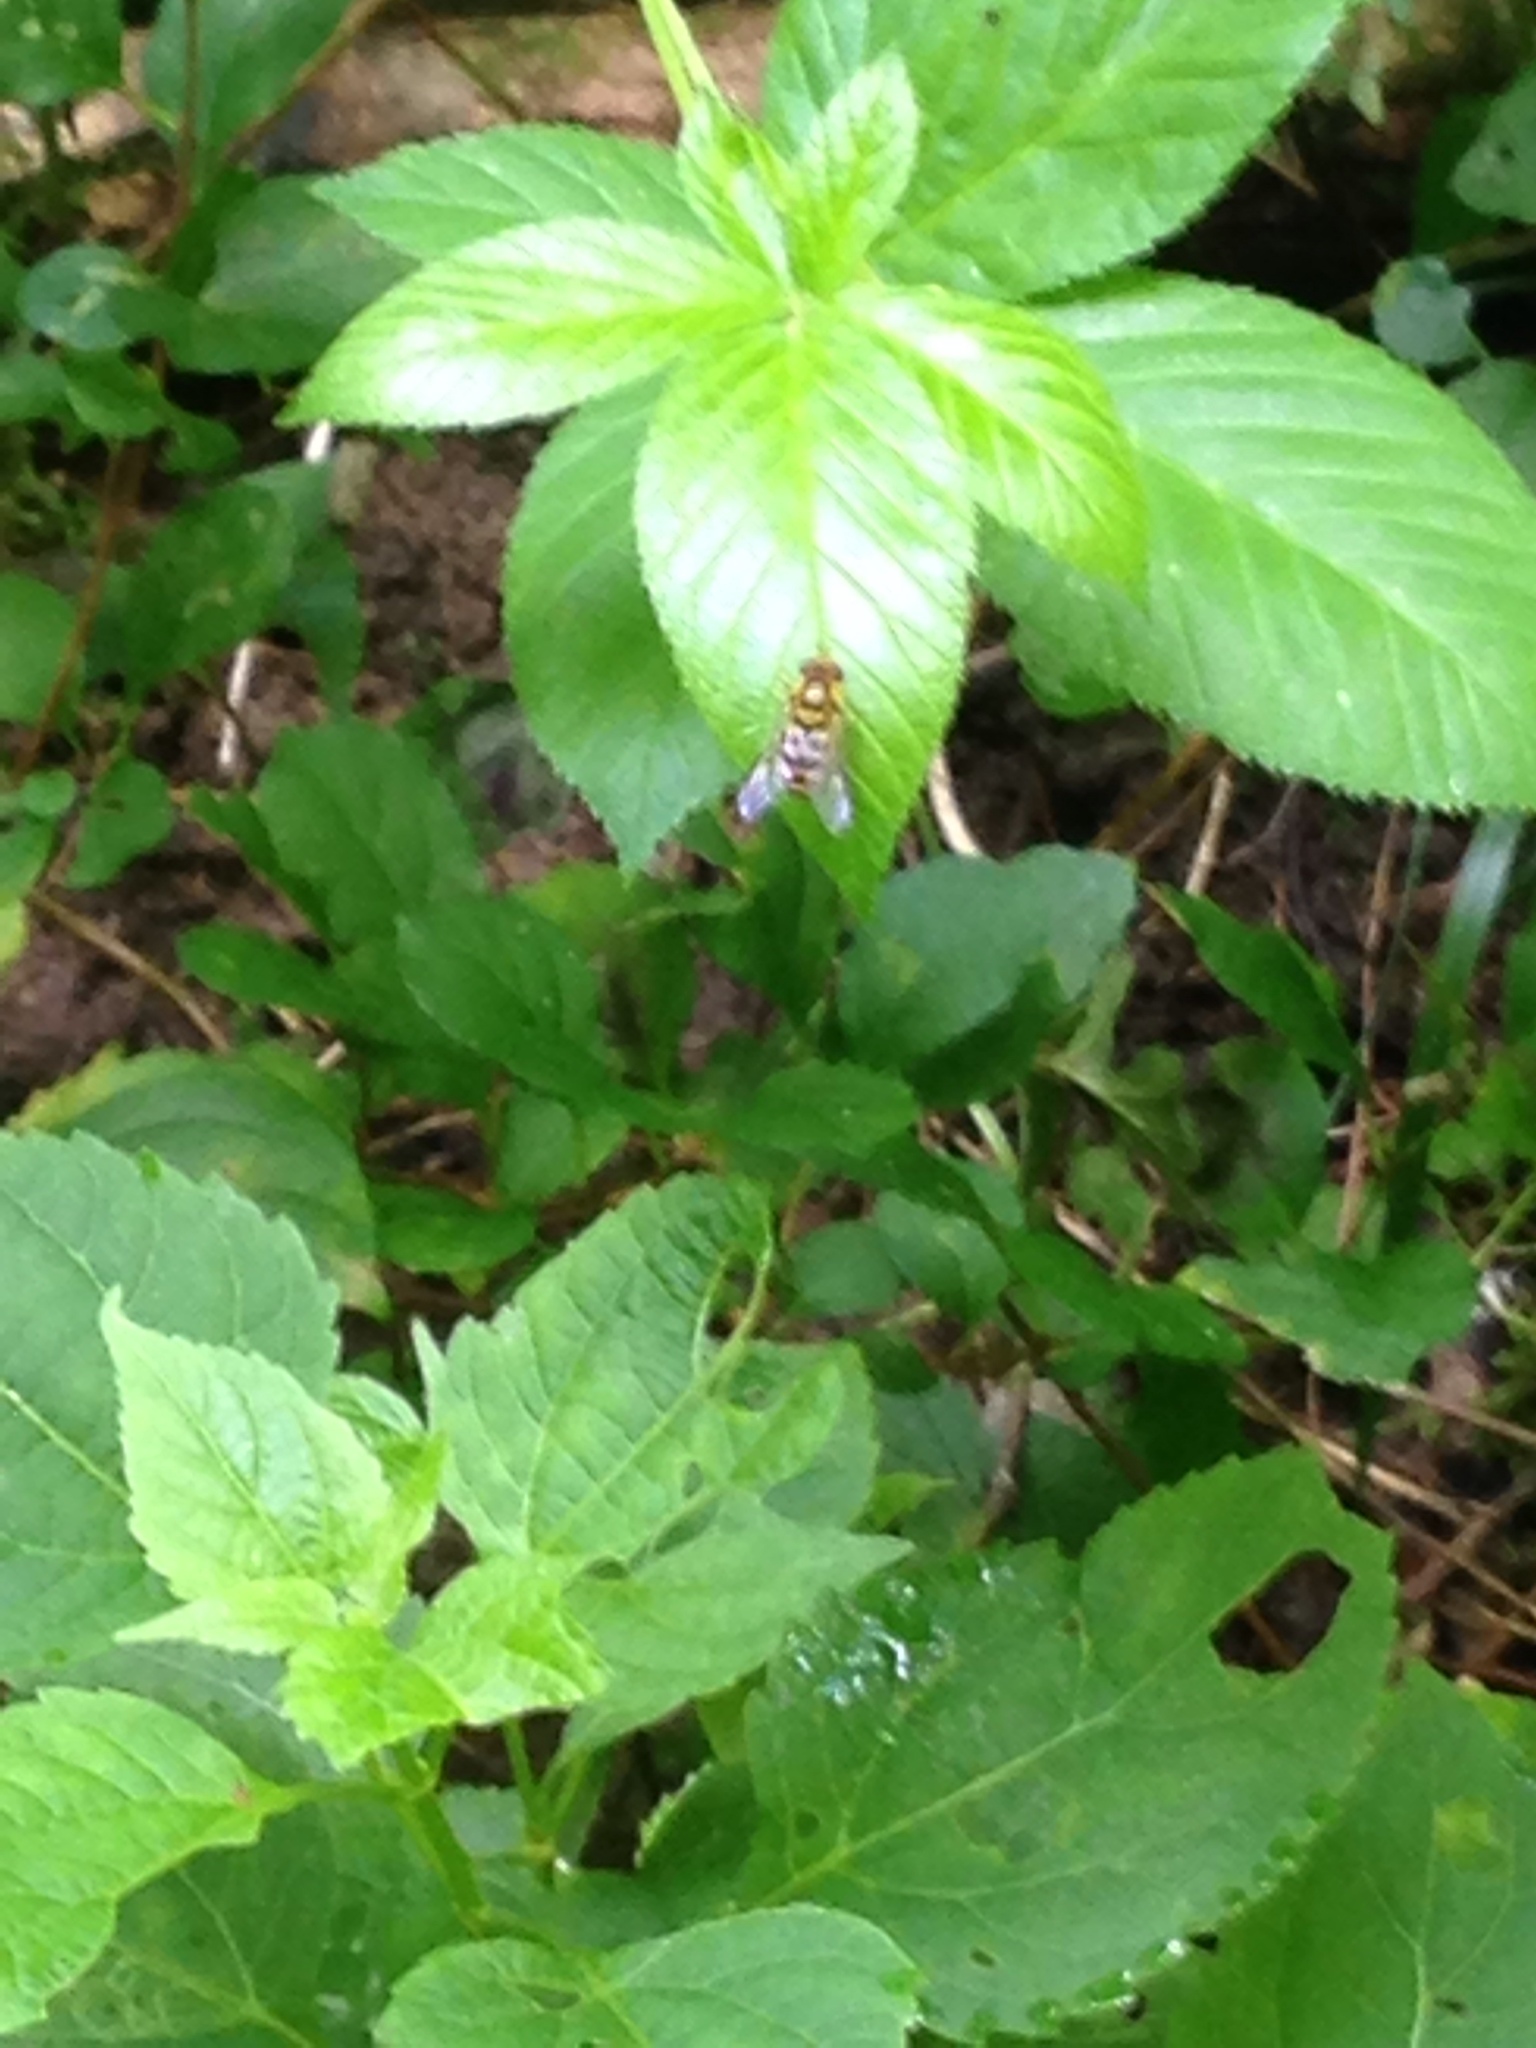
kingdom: Animalia
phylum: Arthropoda
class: Insecta
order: Diptera
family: Syrphidae
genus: Syrphus
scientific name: Syrphus
